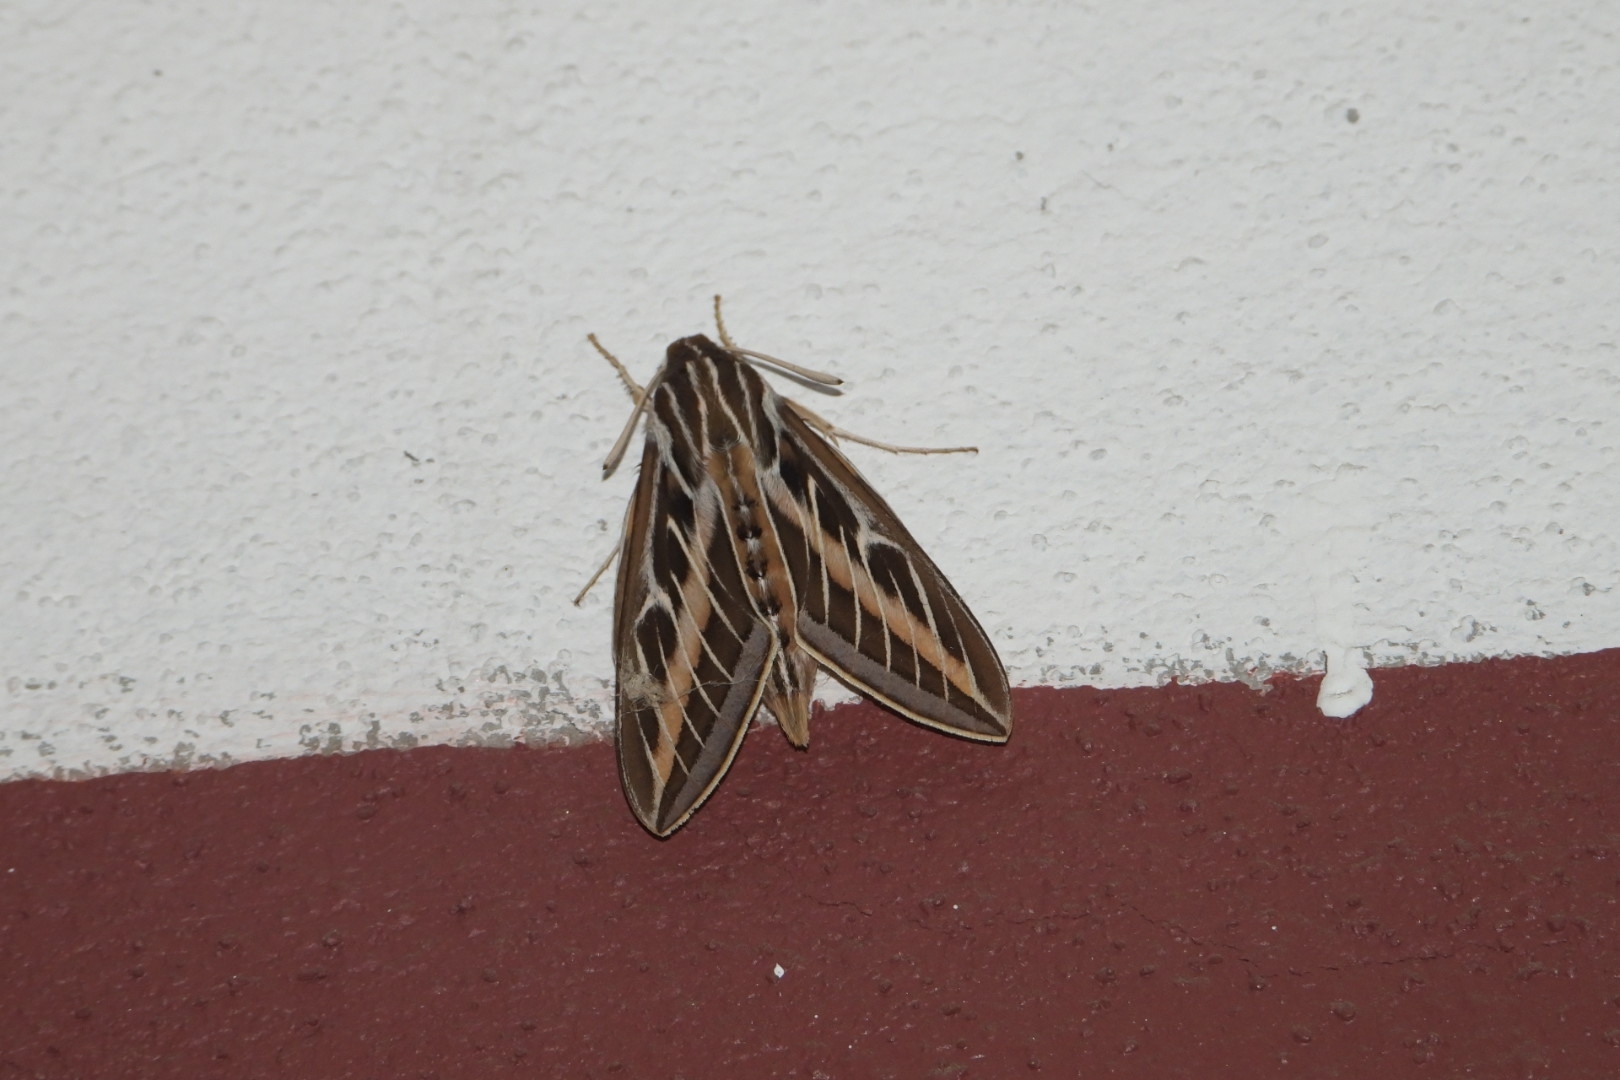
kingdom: Animalia
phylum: Arthropoda
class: Insecta
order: Lepidoptera
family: Sphingidae
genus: Hyles
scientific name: Hyles lineata
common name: White-lined sphinx
